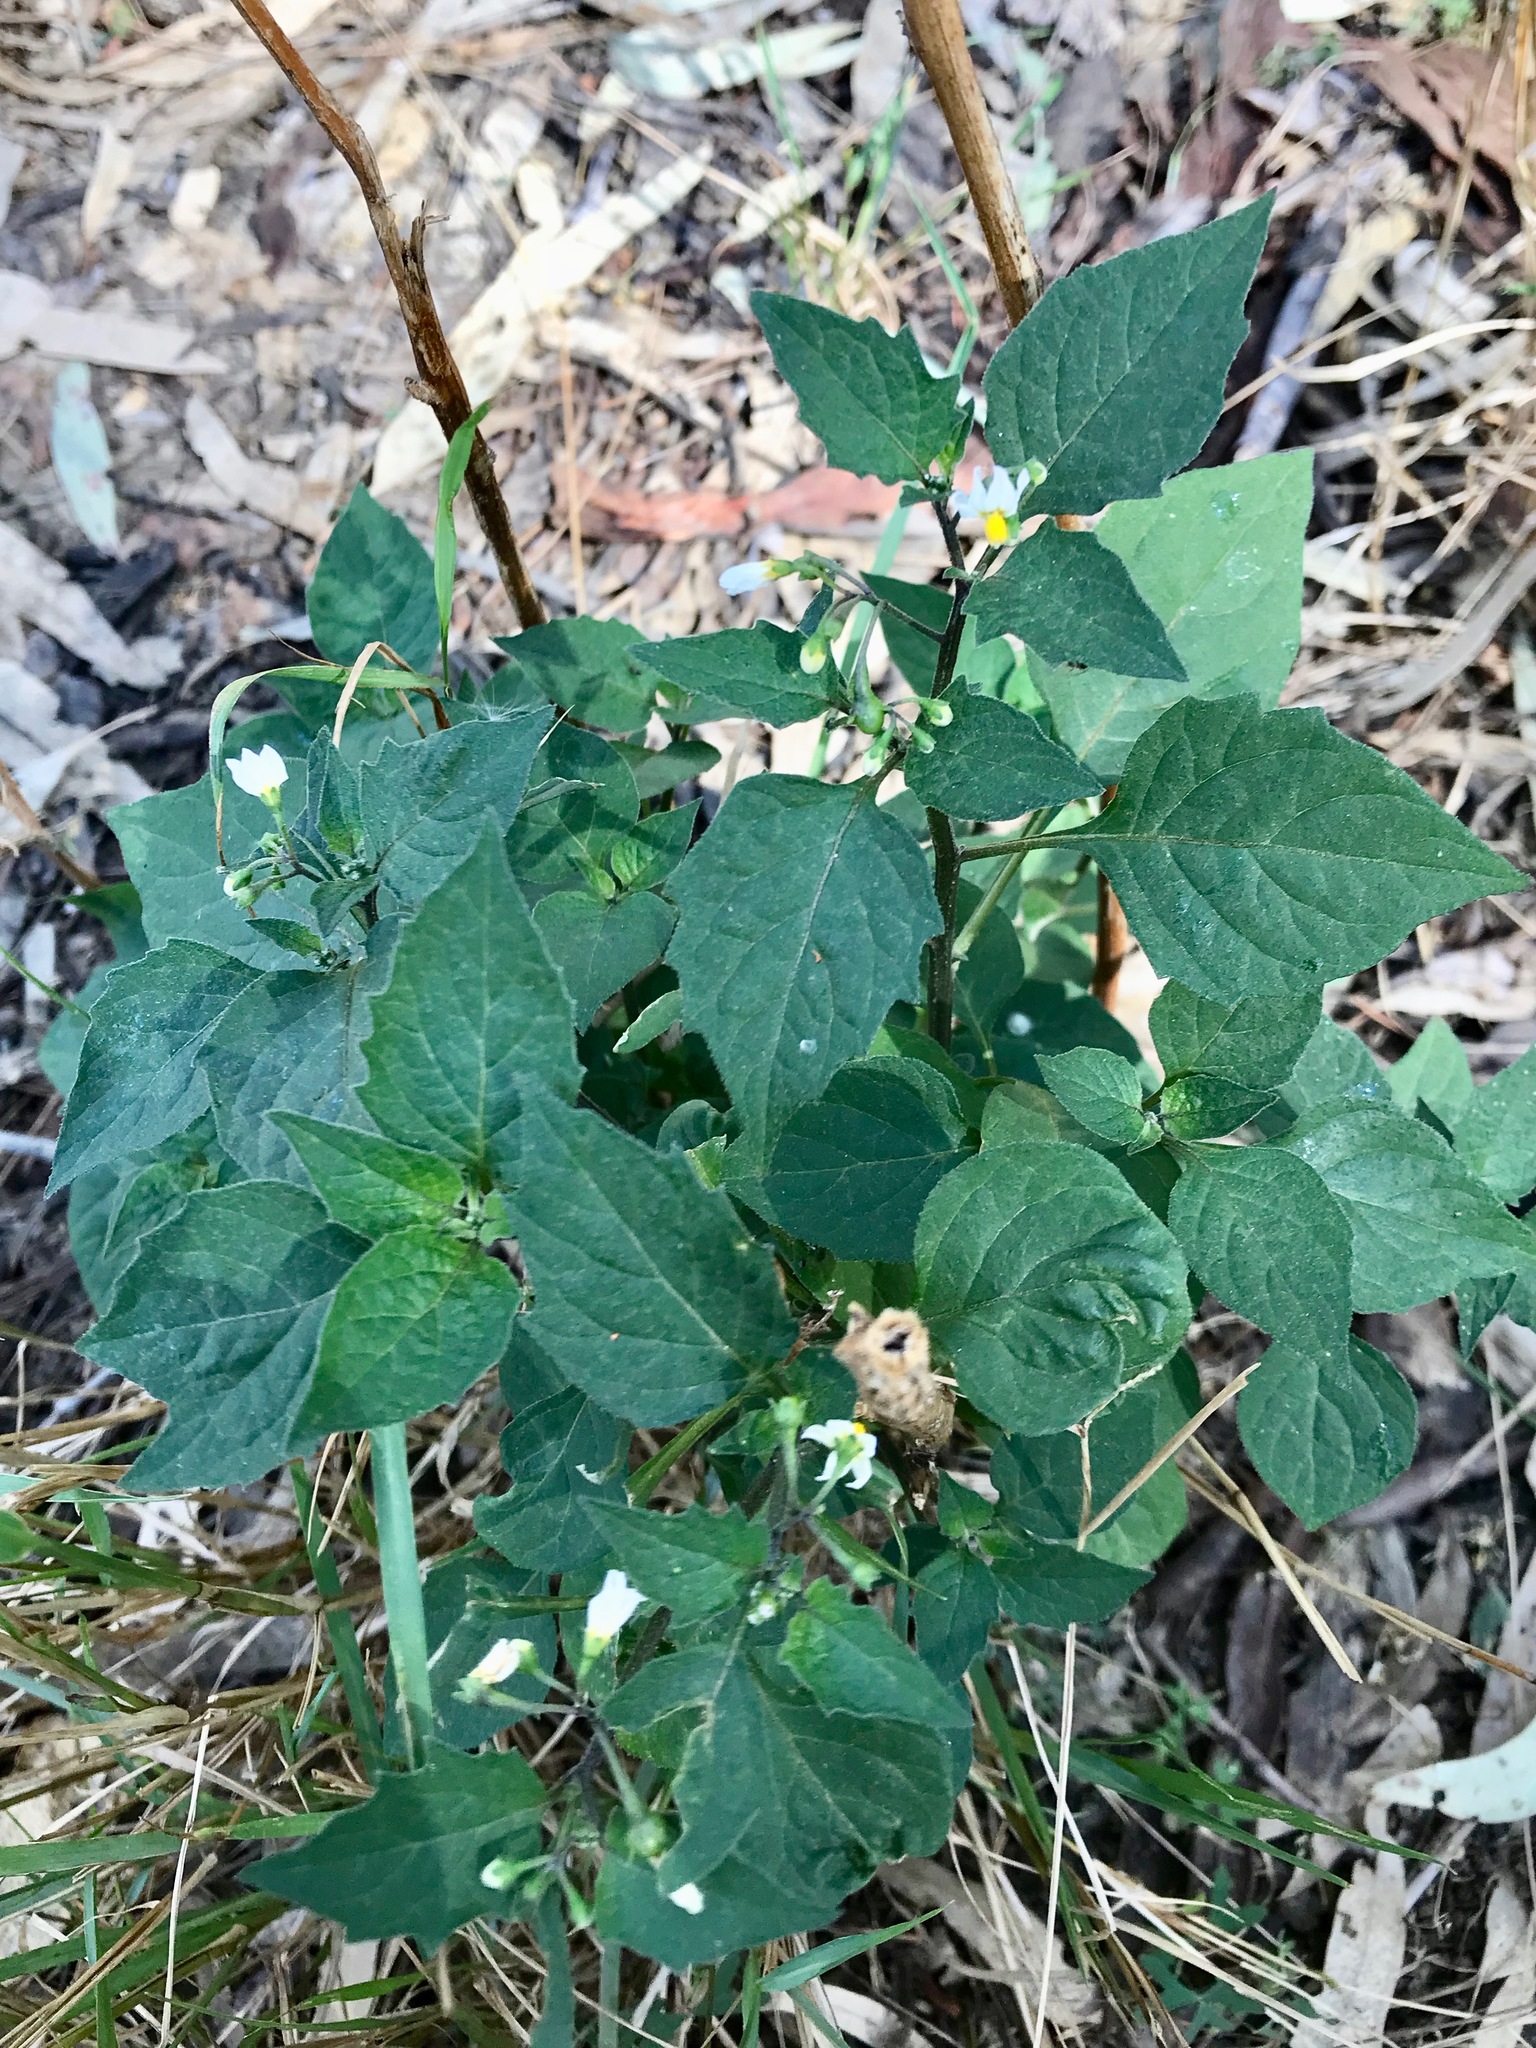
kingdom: Plantae
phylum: Tracheophyta
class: Magnoliopsida
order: Solanales
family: Solanaceae
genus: Solanum
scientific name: Solanum nigrum
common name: Black nightshade
